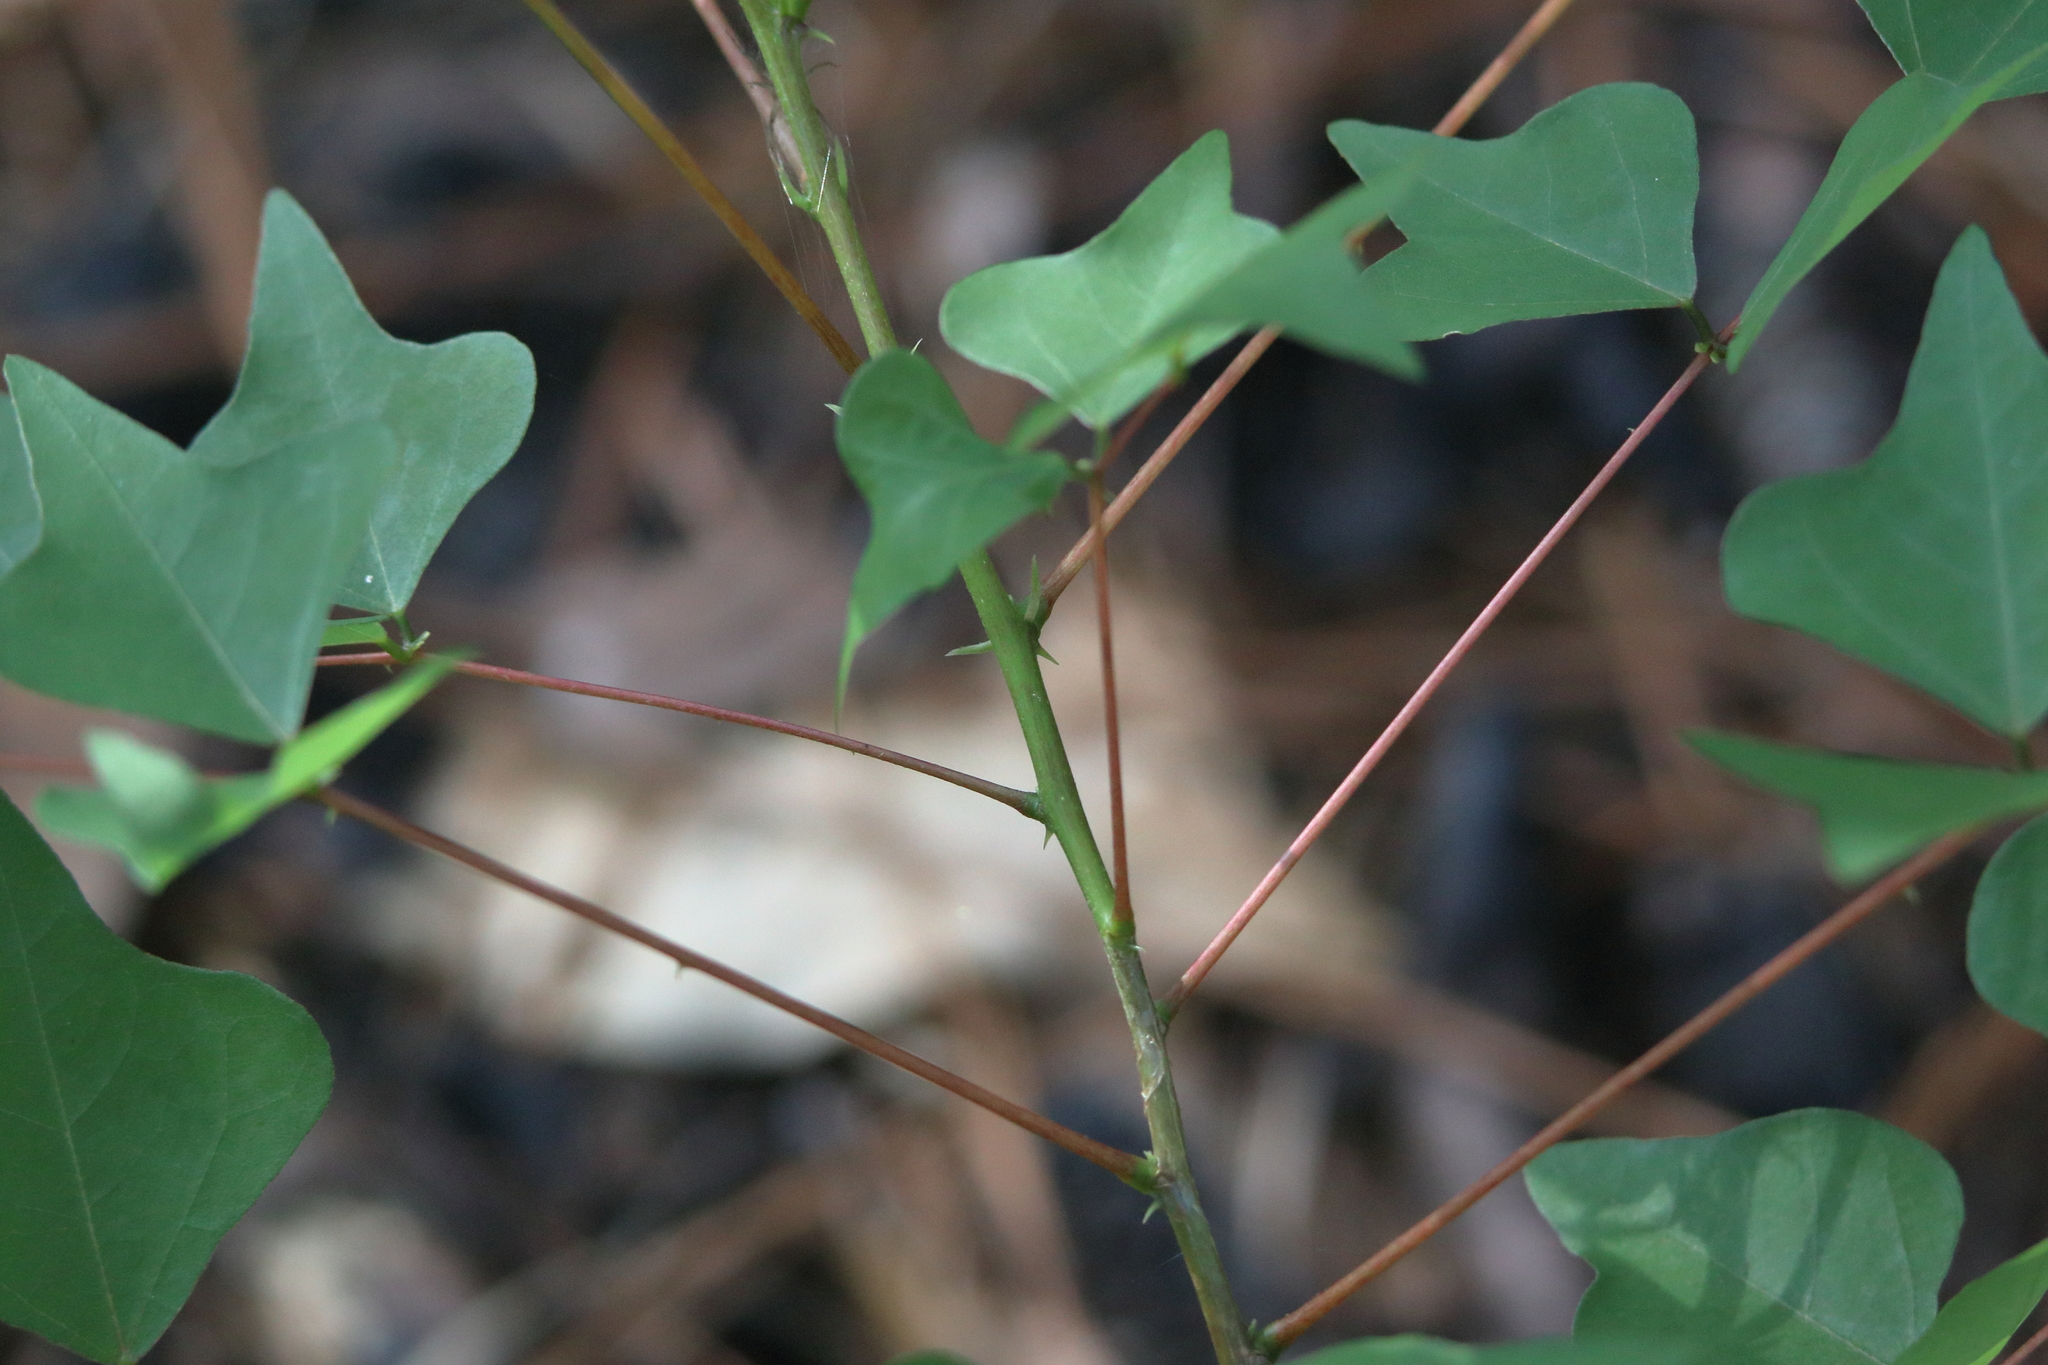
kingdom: Plantae
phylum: Tracheophyta
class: Magnoliopsida
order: Fabales
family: Fabaceae
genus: Erythrina
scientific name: Erythrina herbacea
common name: Coral-bean
